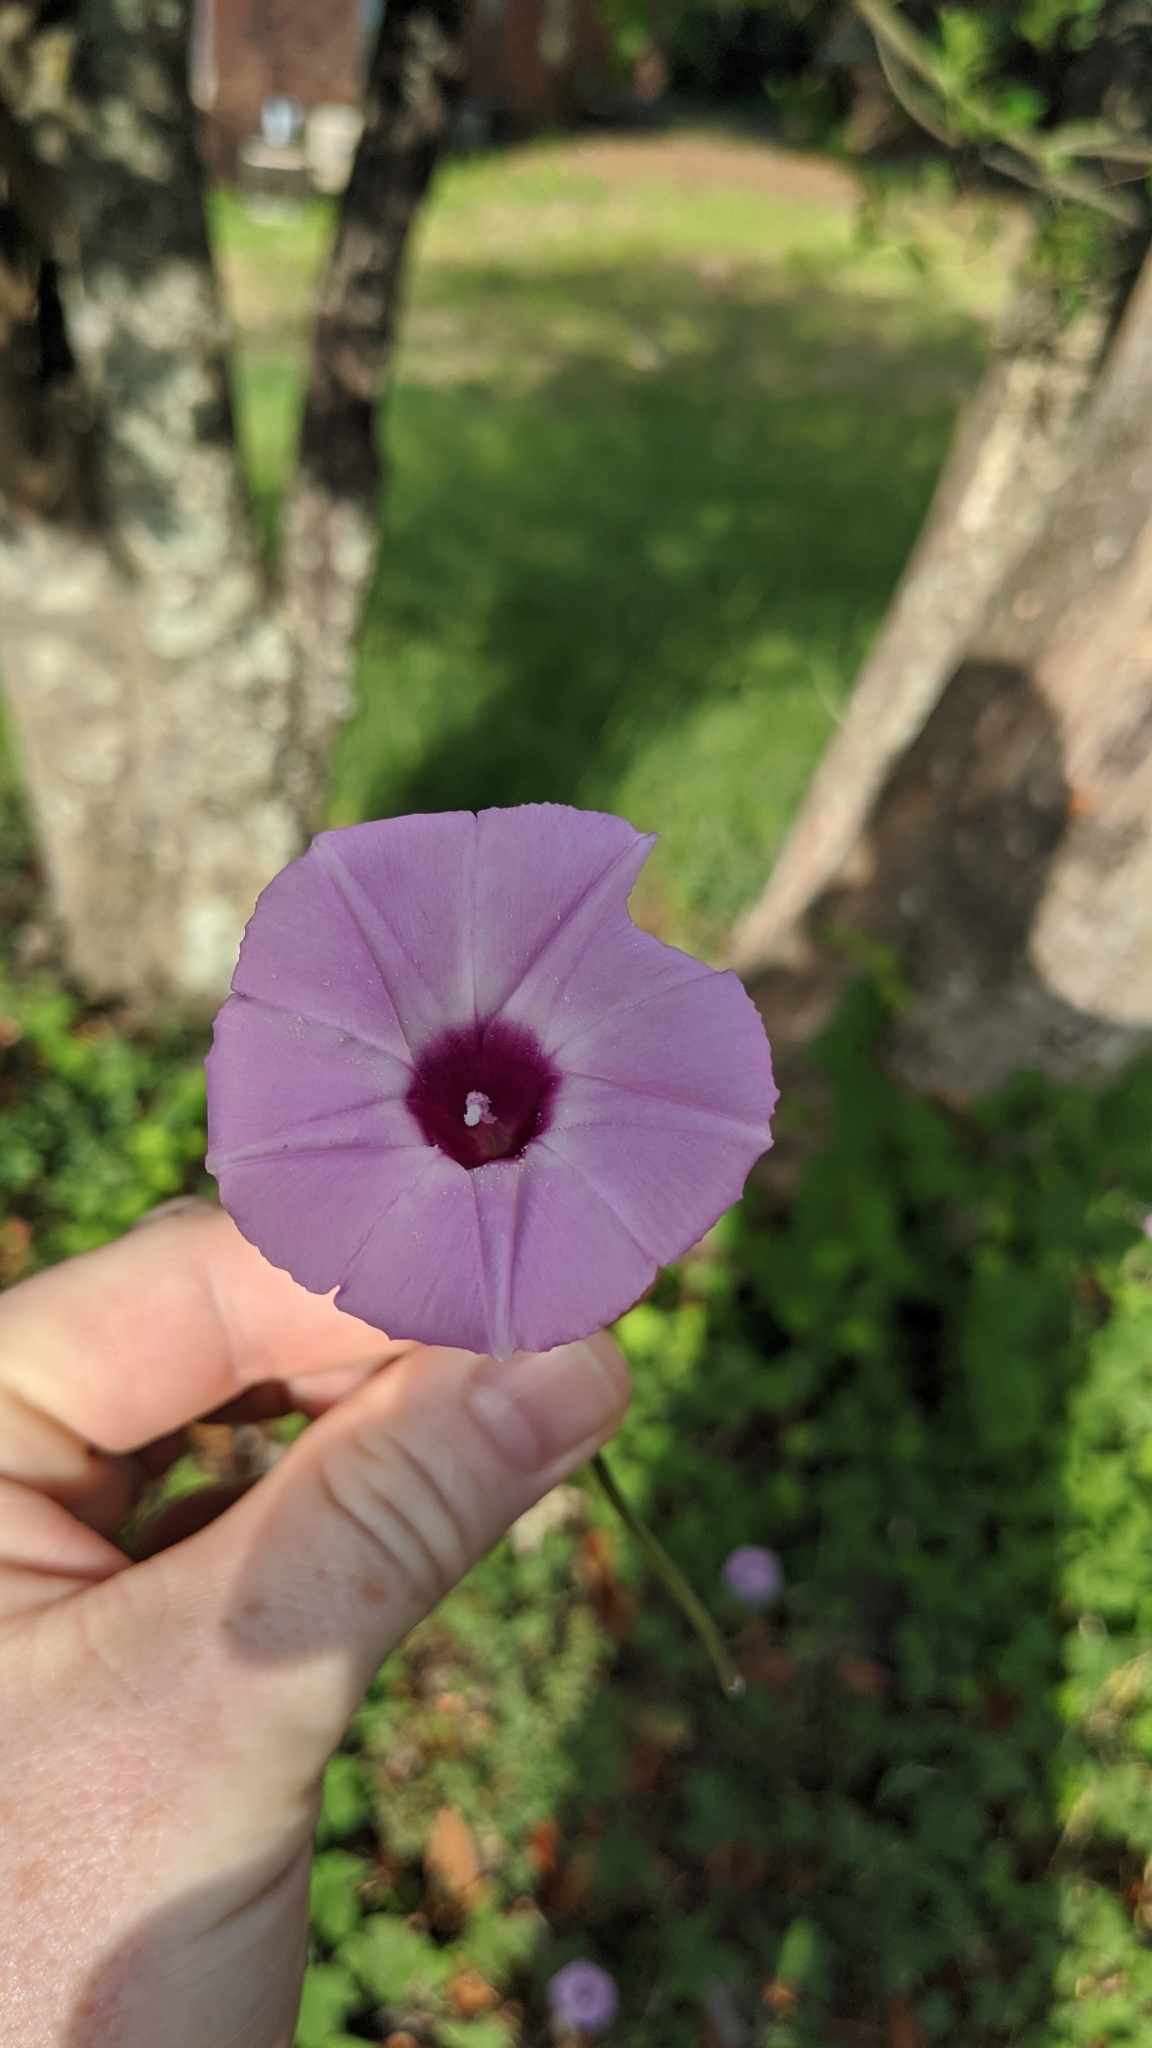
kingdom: Plantae
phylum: Tracheophyta
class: Magnoliopsida
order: Solanales
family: Convolvulaceae
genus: Ipomoea
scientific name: Ipomoea cordatotriloba
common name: Cotton morning glory
